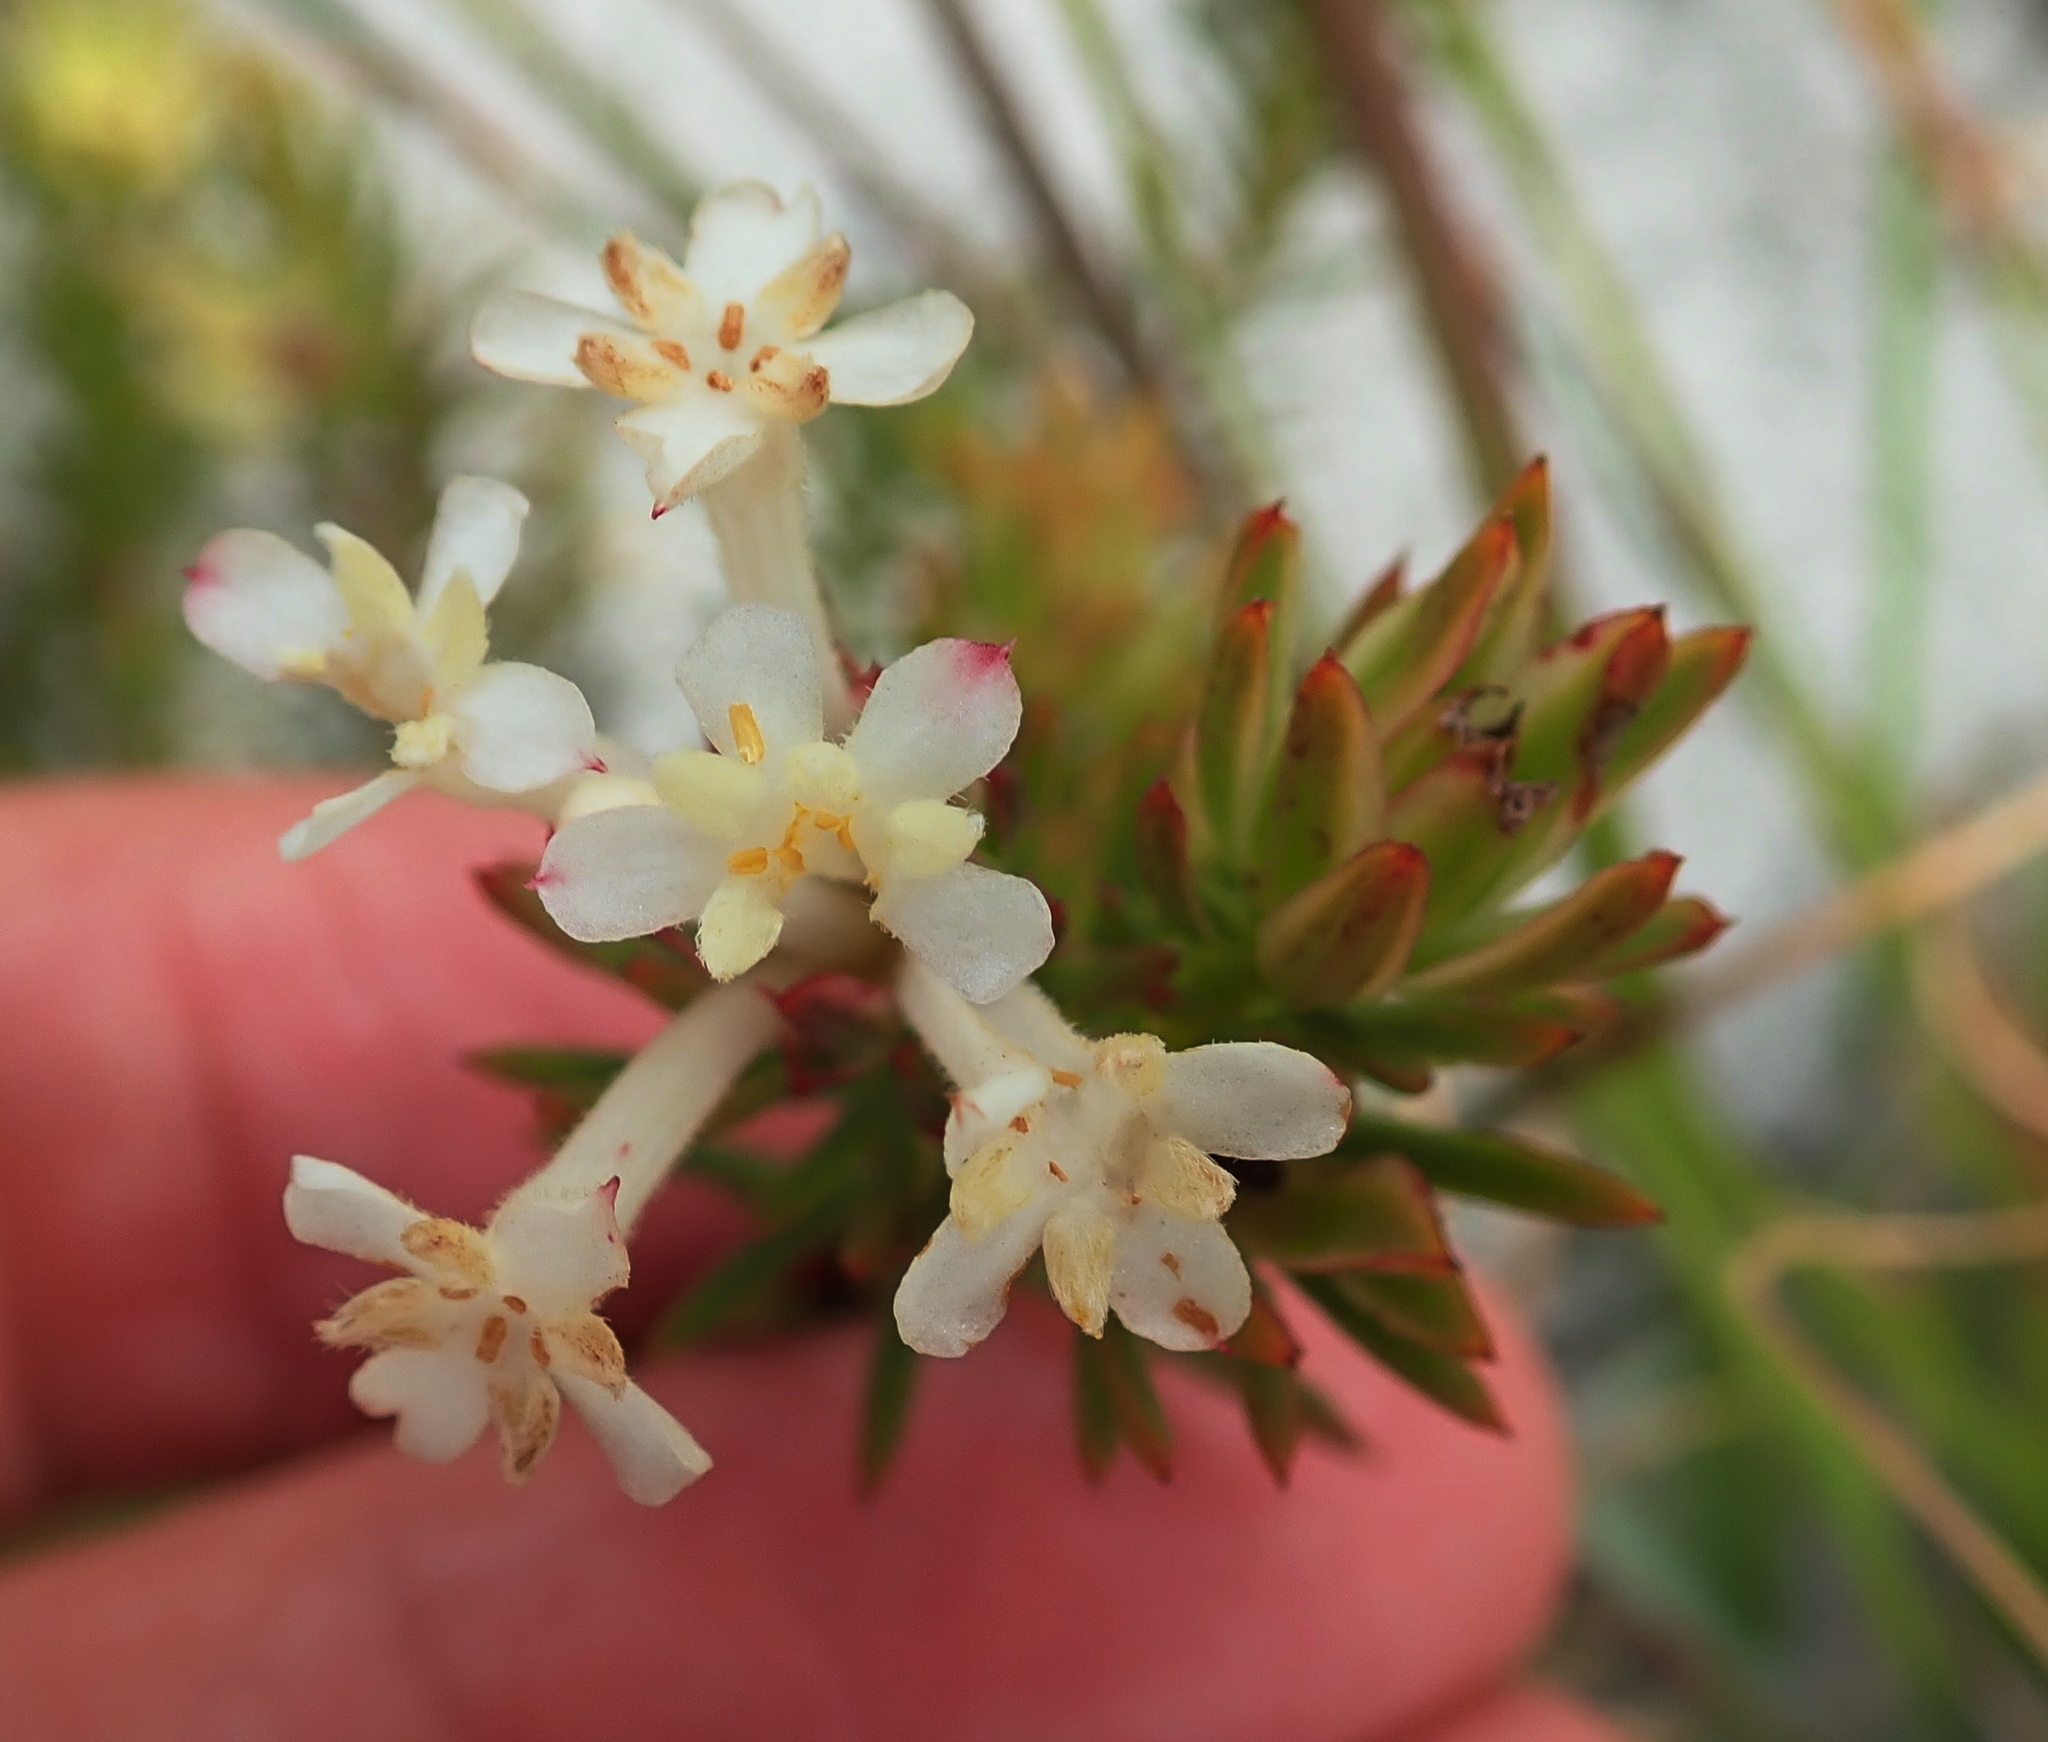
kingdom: Plantae
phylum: Tracheophyta
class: Magnoliopsida
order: Malvales
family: Thymelaeaceae
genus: Gnidia
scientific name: Gnidia pinifolia
